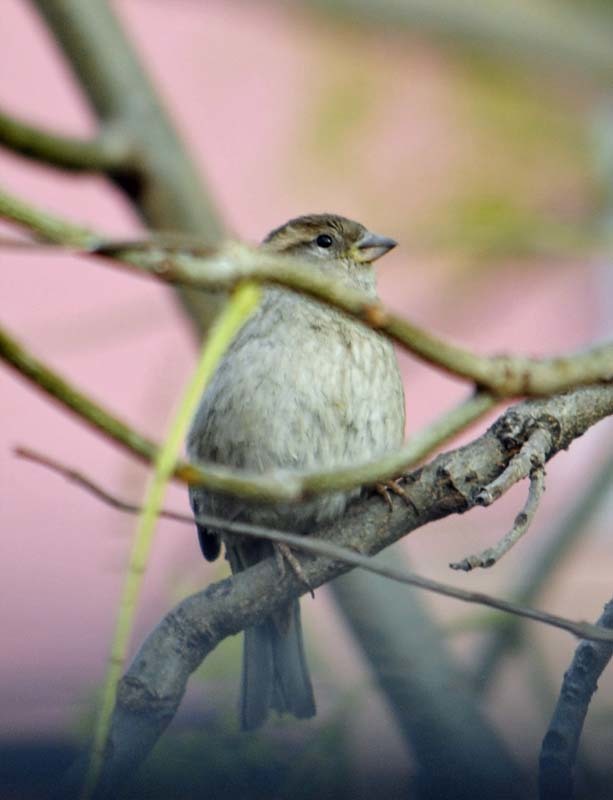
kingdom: Animalia
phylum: Chordata
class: Aves
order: Passeriformes
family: Passeridae
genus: Passer
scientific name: Passer domesticus
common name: House sparrow
